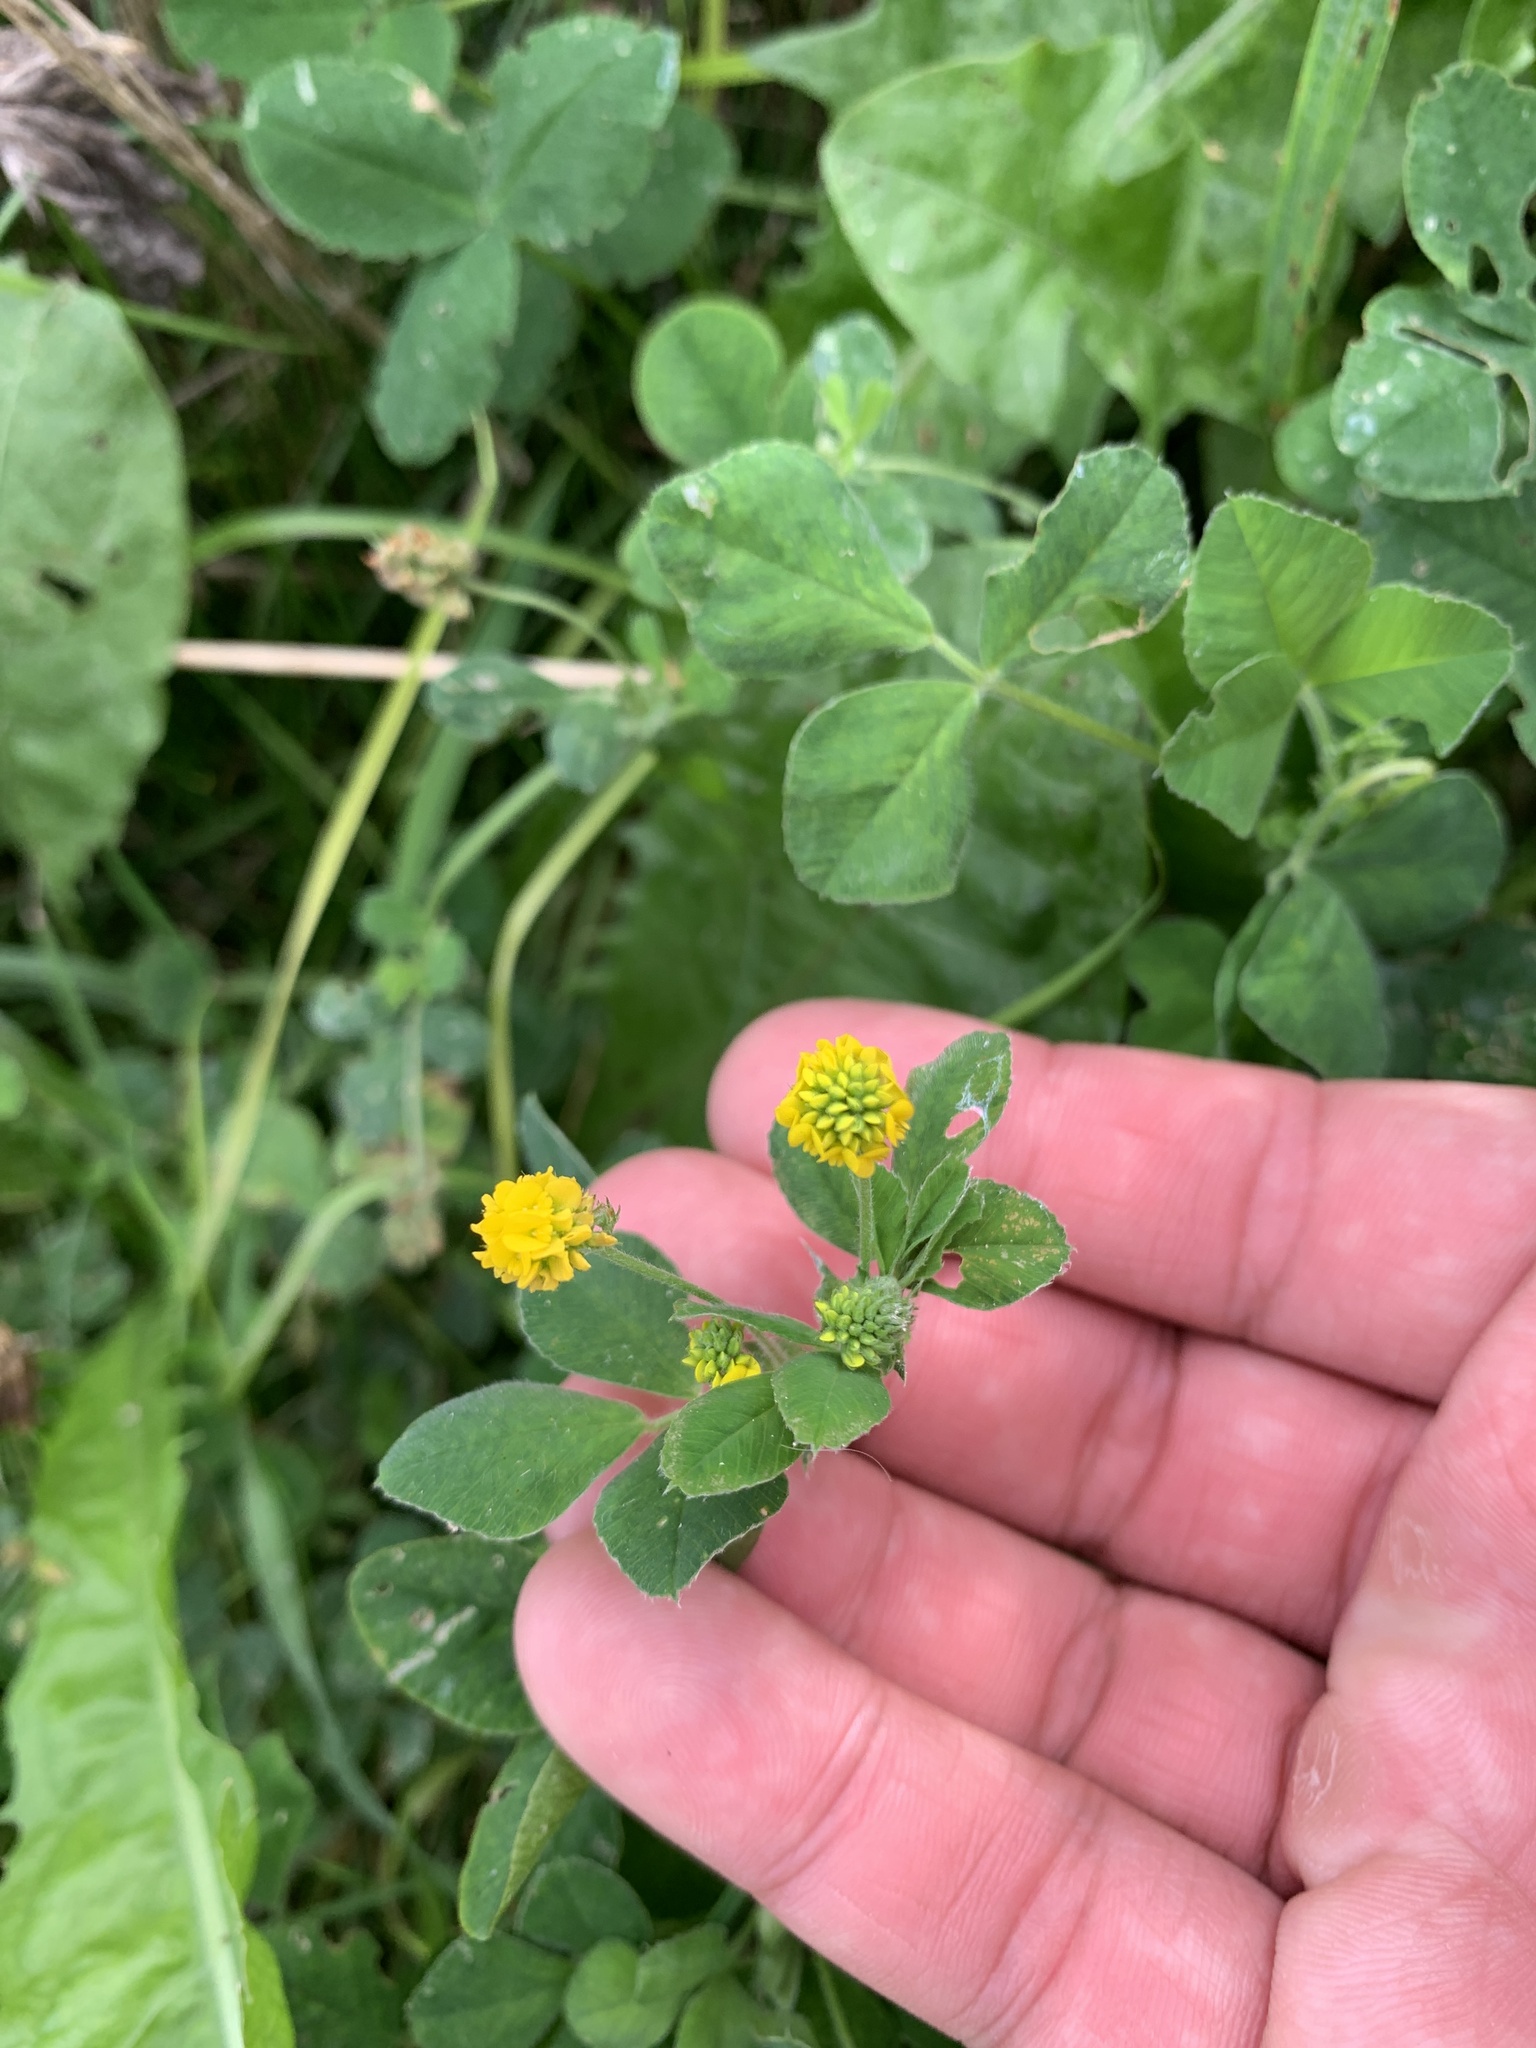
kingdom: Plantae
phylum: Tracheophyta
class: Magnoliopsida
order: Fabales
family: Fabaceae
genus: Medicago
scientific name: Medicago lupulina
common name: Black medick
